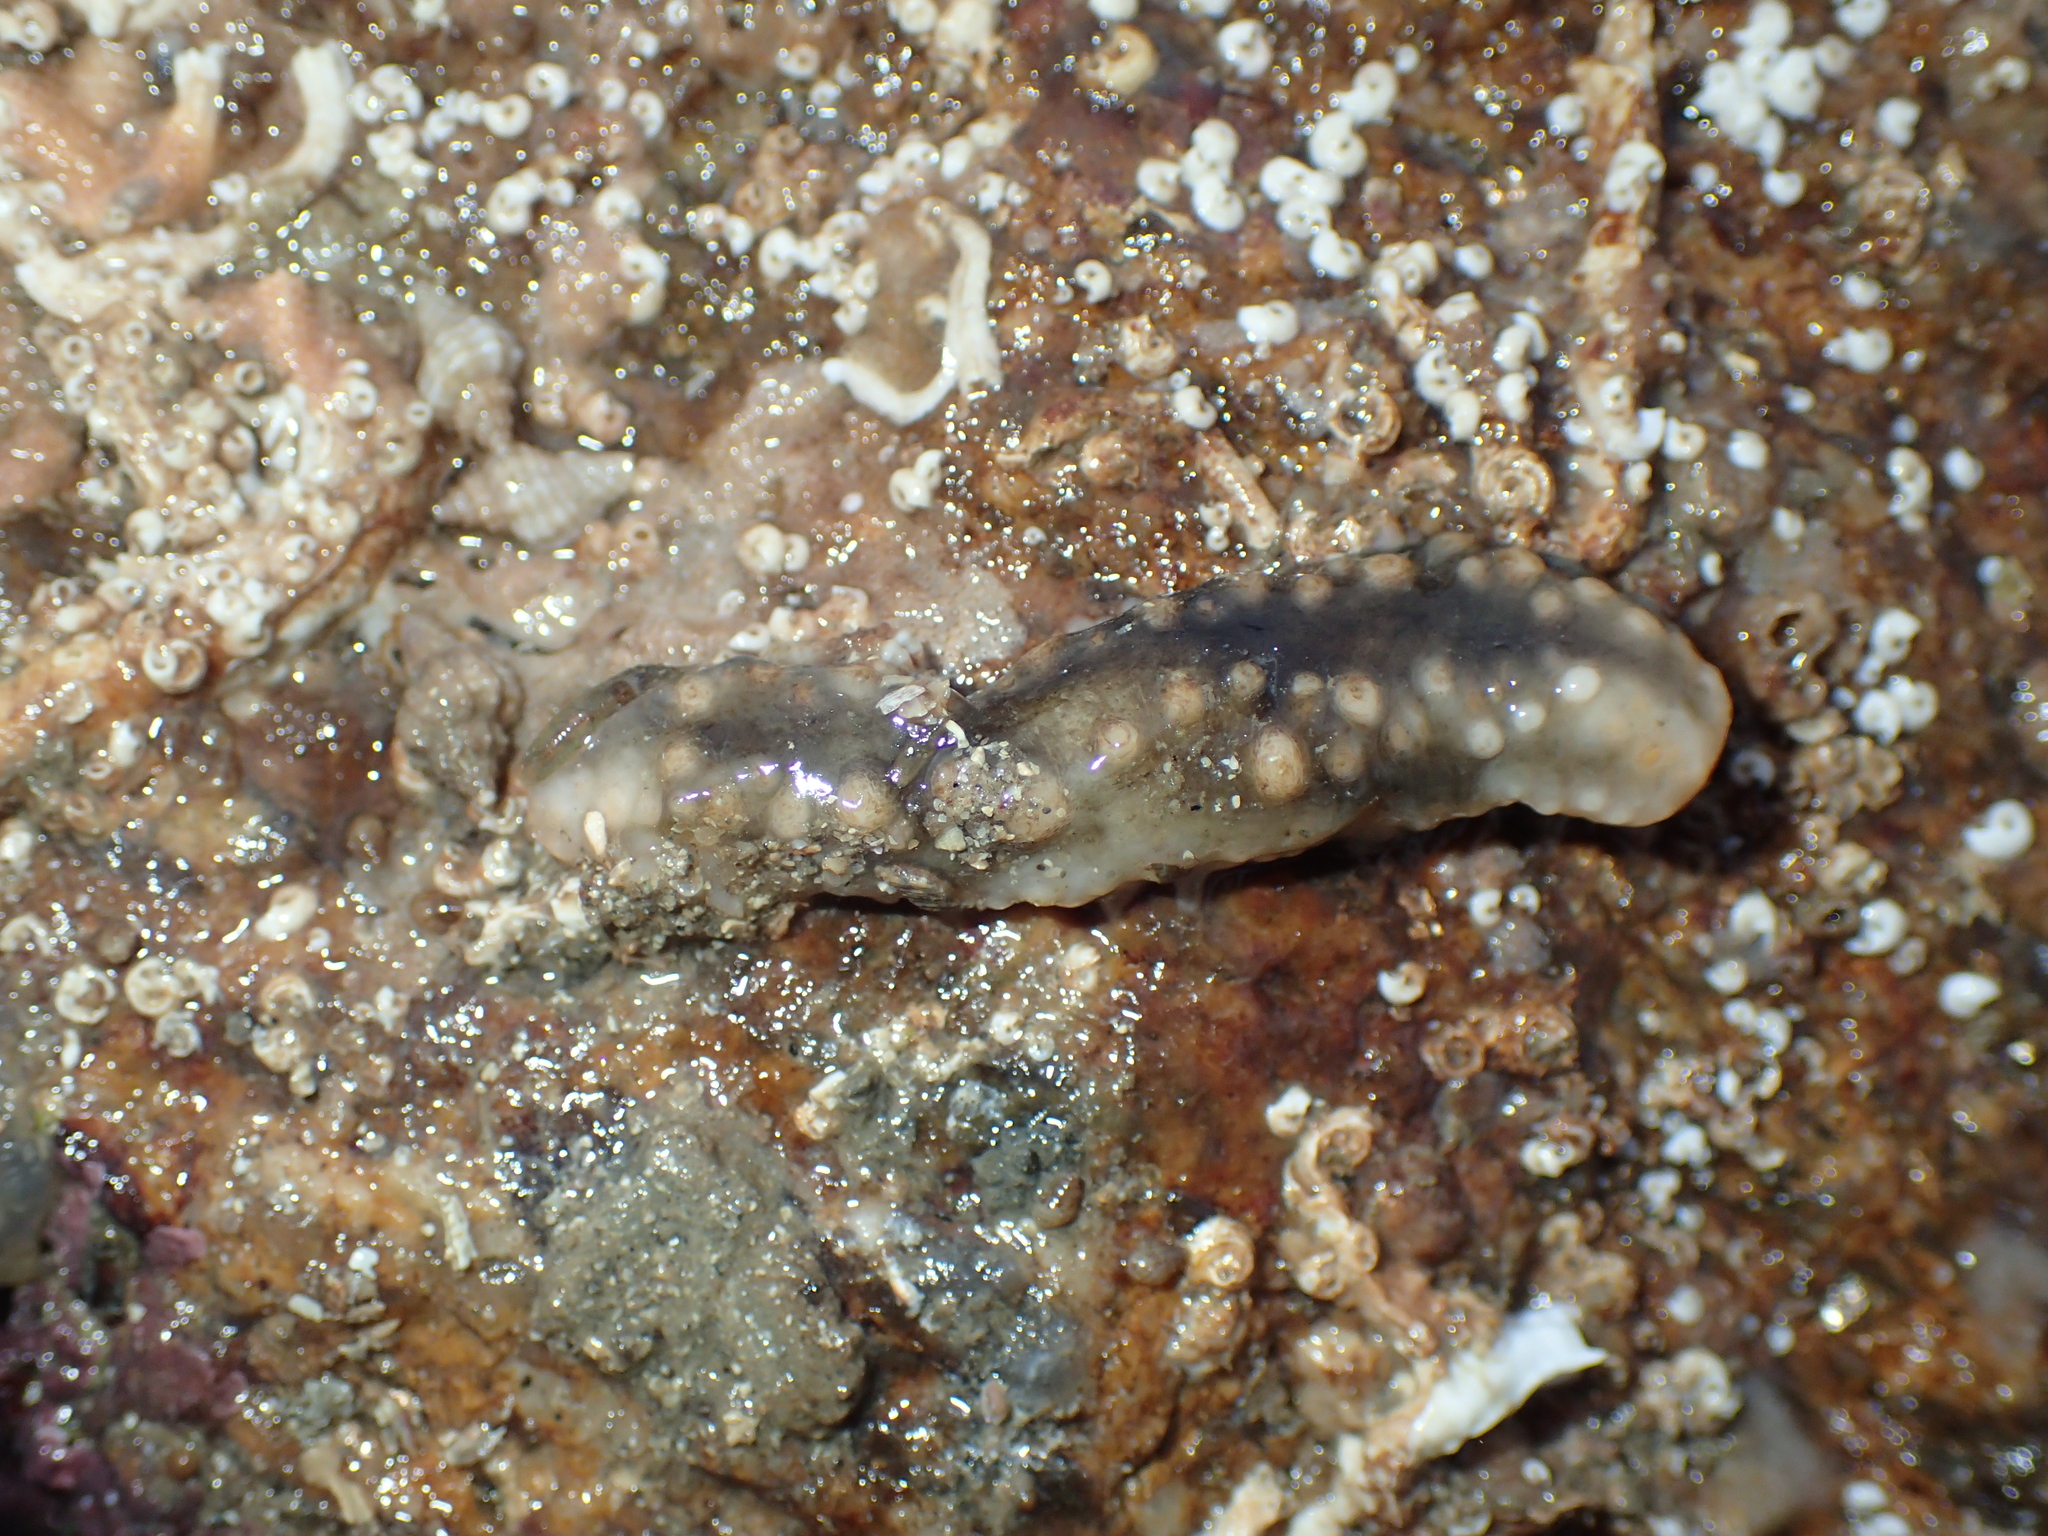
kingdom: Animalia
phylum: Echinodermata
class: Holothuroidea
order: Dendrochirotida
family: Cucumariidae
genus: Pawsonia
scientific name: Pawsonia saxicola
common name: Sea gherkin
